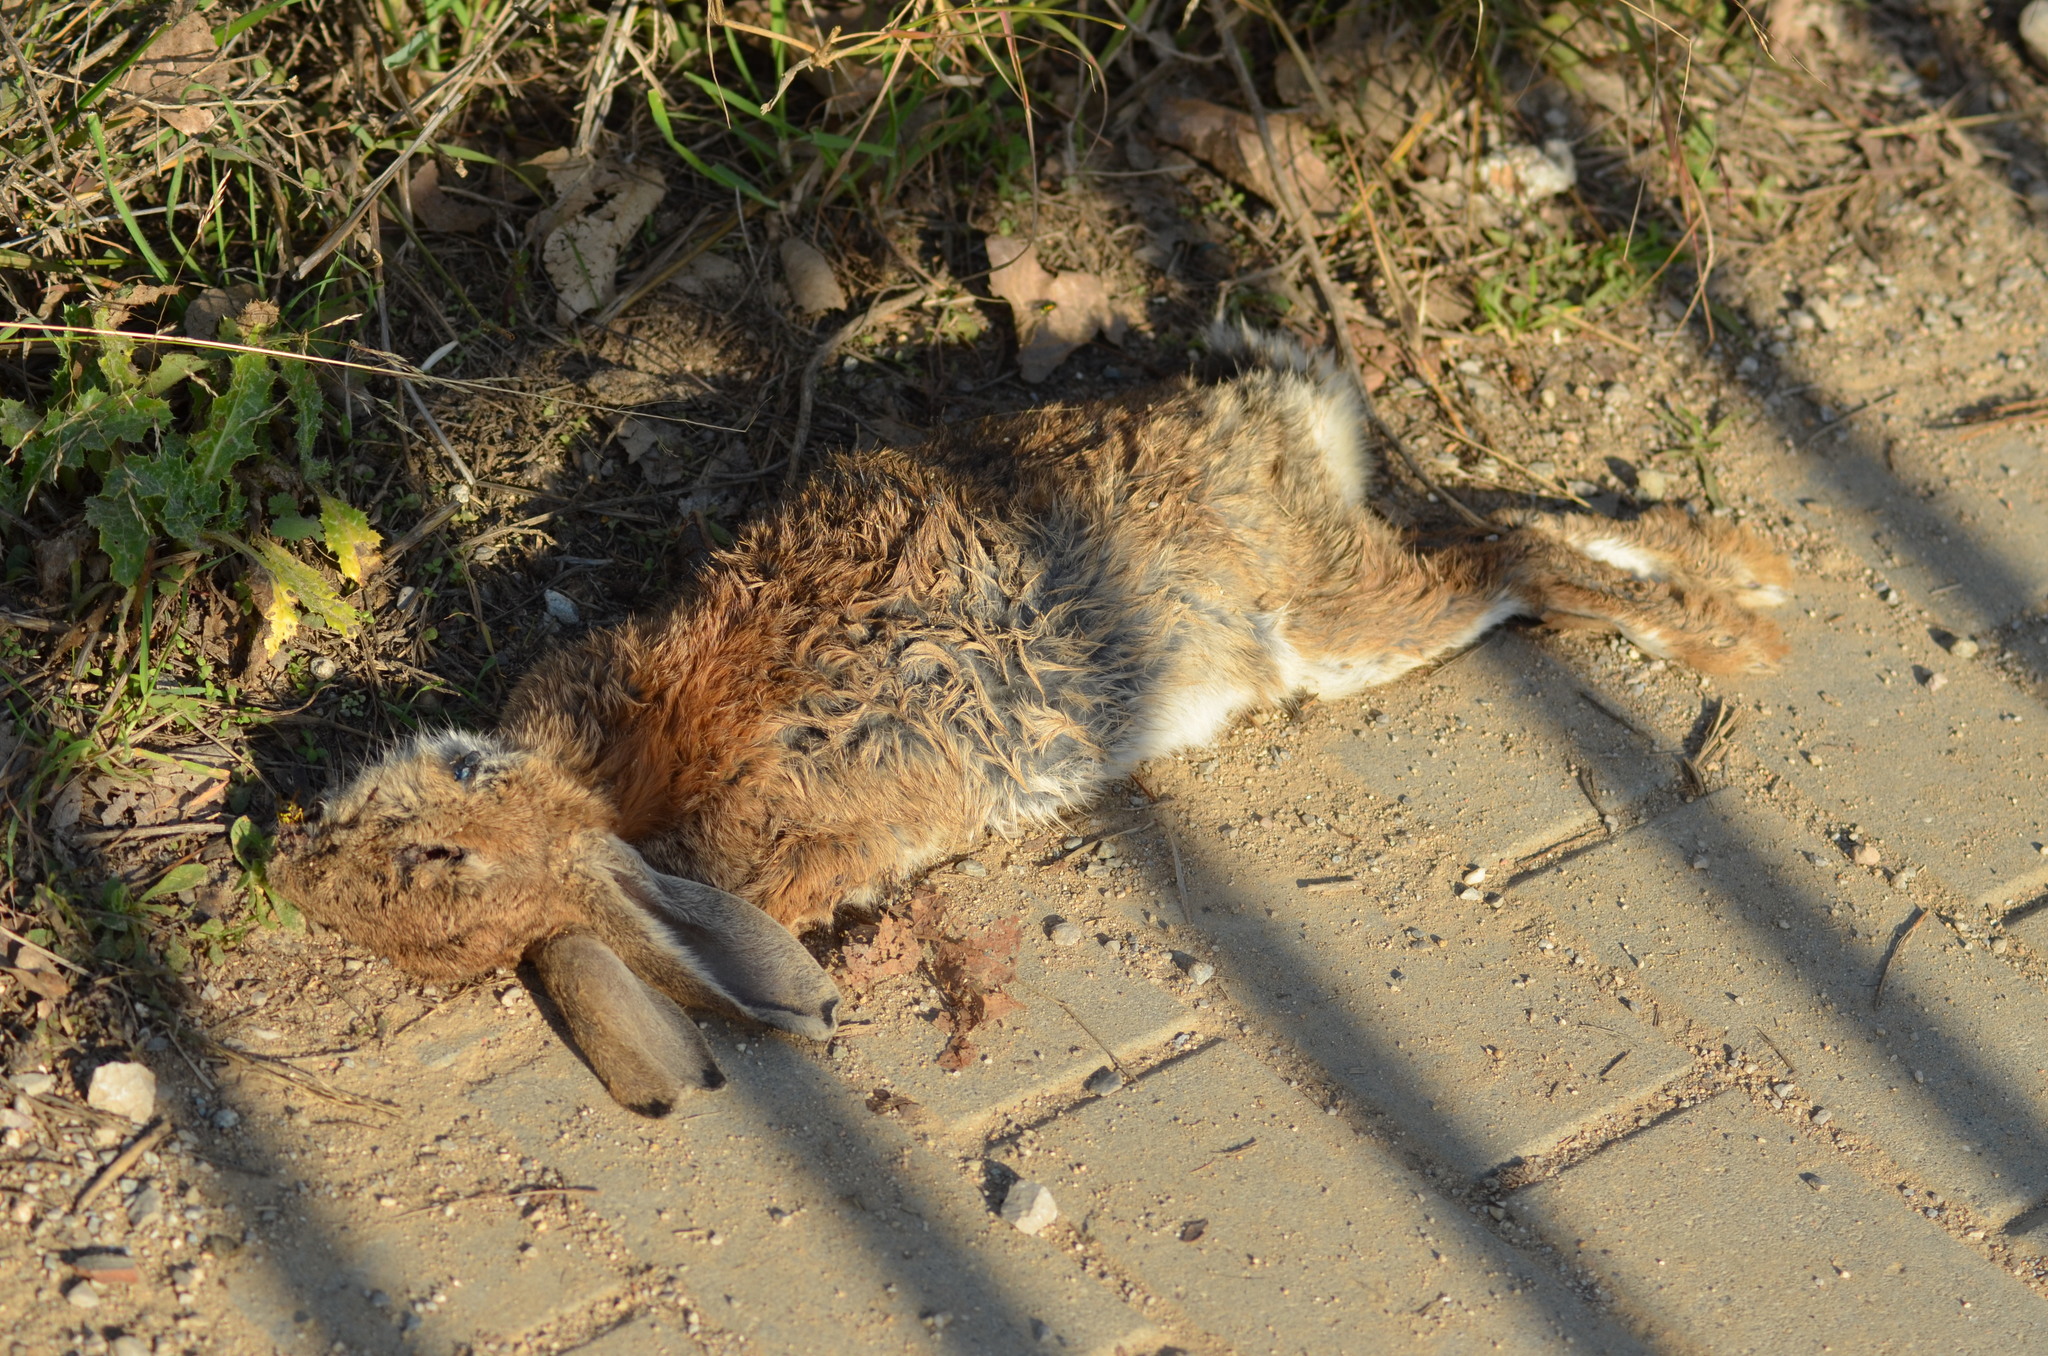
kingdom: Animalia
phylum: Chordata
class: Mammalia
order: Lagomorpha
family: Leporidae
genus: Oryctolagus
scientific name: Oryctolagus cuniculus
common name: European rabbit
